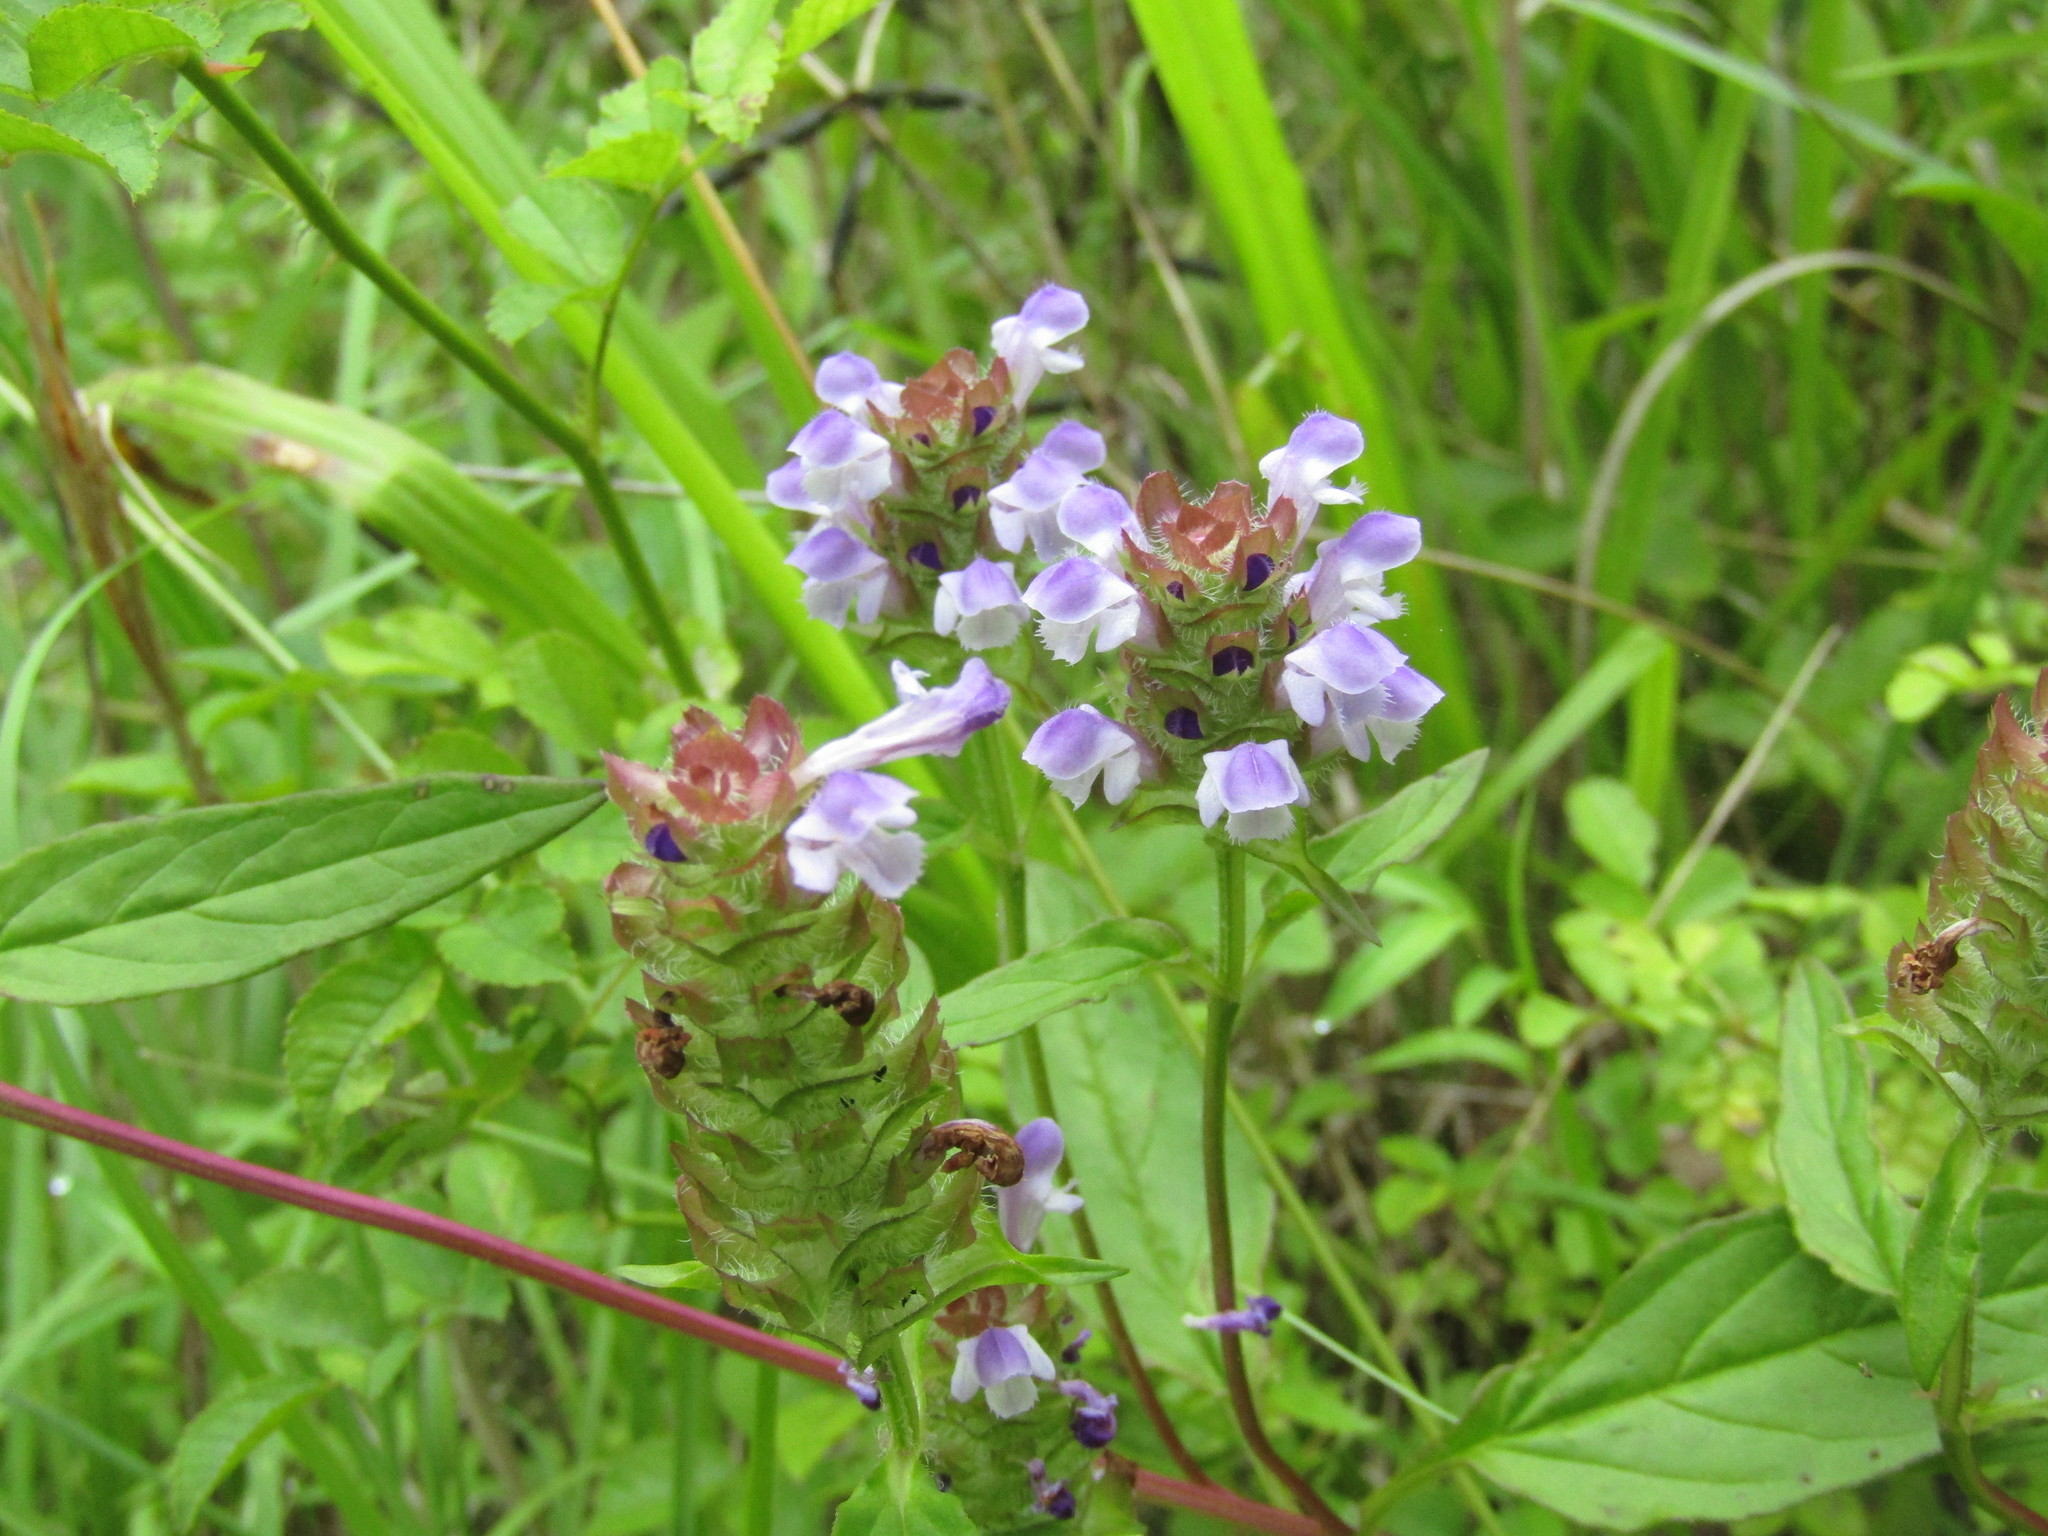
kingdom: Plantae
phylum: Tracheophyta
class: Magnoliopsida
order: Lamiales
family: Lamiaceae
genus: Prunella
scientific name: Prunella vulgaris
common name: Heal-all
